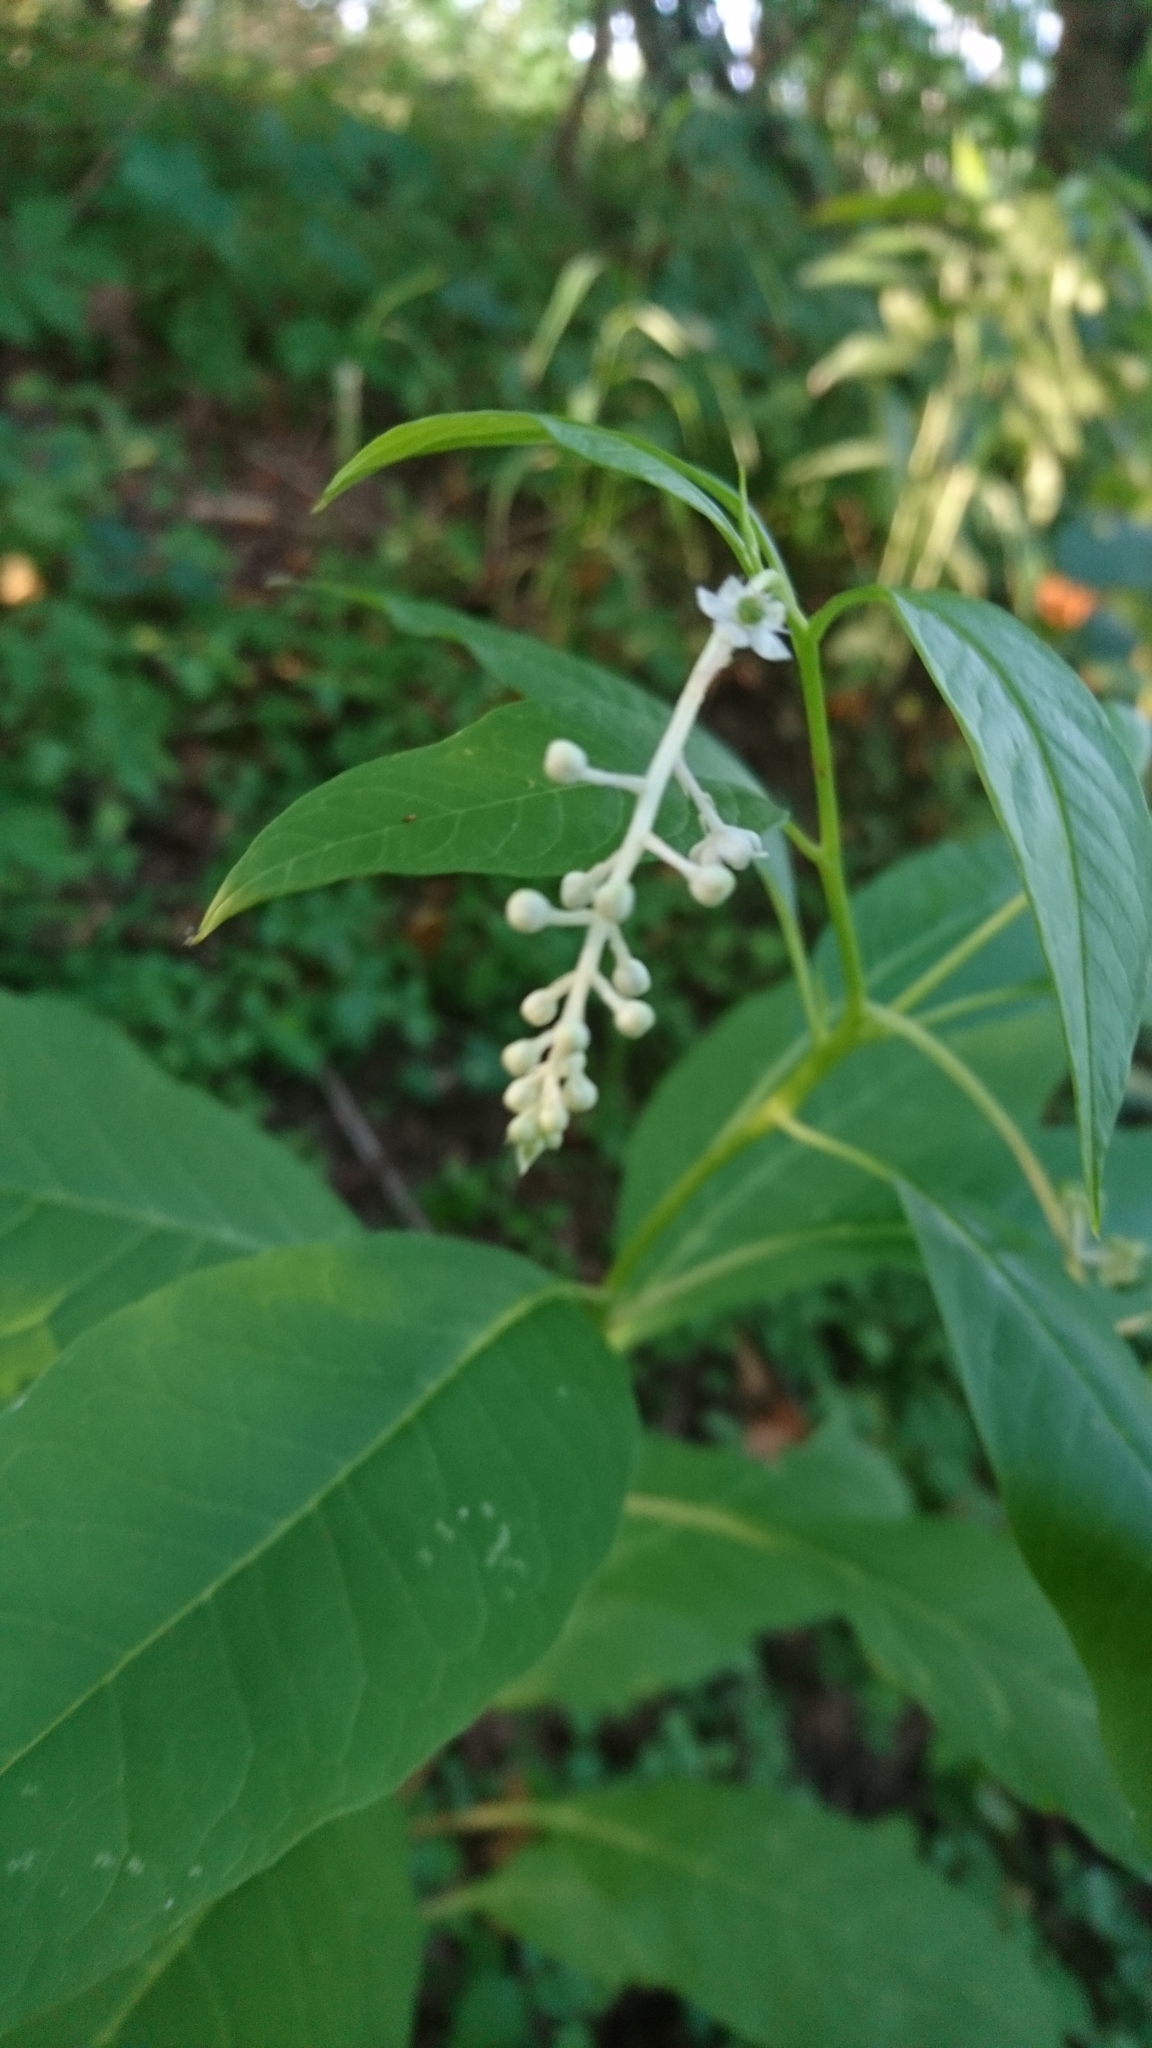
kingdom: Plantae
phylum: Tracheophyta
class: Magnoliopsida
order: Caryophyllales
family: Phytolaccaceae
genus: Phytolacca
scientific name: Phytolacca americana
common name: American pokeweed
